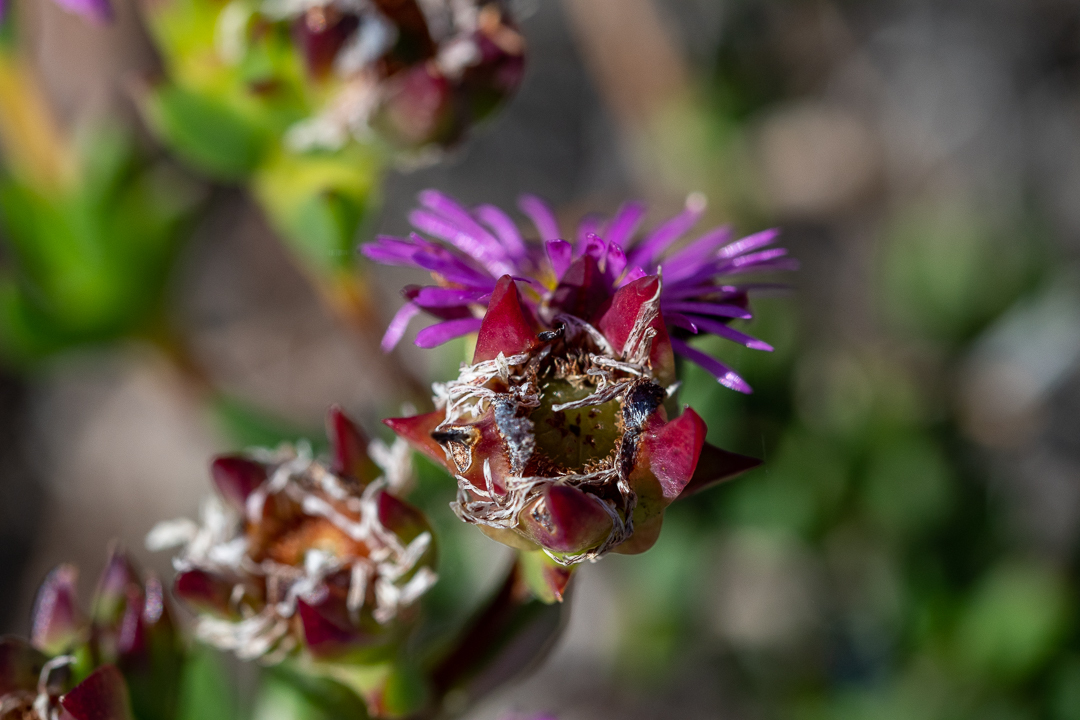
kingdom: Plantae
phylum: Tracheophyta
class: Magnoliopsida
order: Caryophyllales
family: Aizoaceae
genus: Erepsia
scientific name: Erepsia anceps
